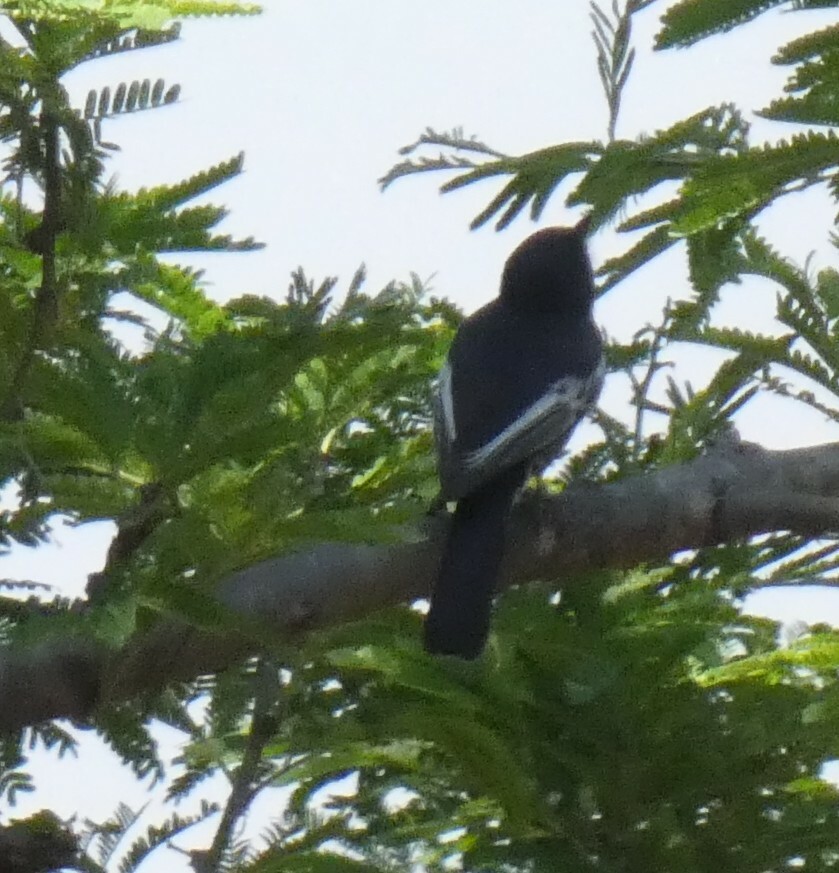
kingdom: Animalia
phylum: Chordata
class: Aves
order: Passeriformes
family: Paridae
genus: Parus
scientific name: Parus niger
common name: Southern black tit
